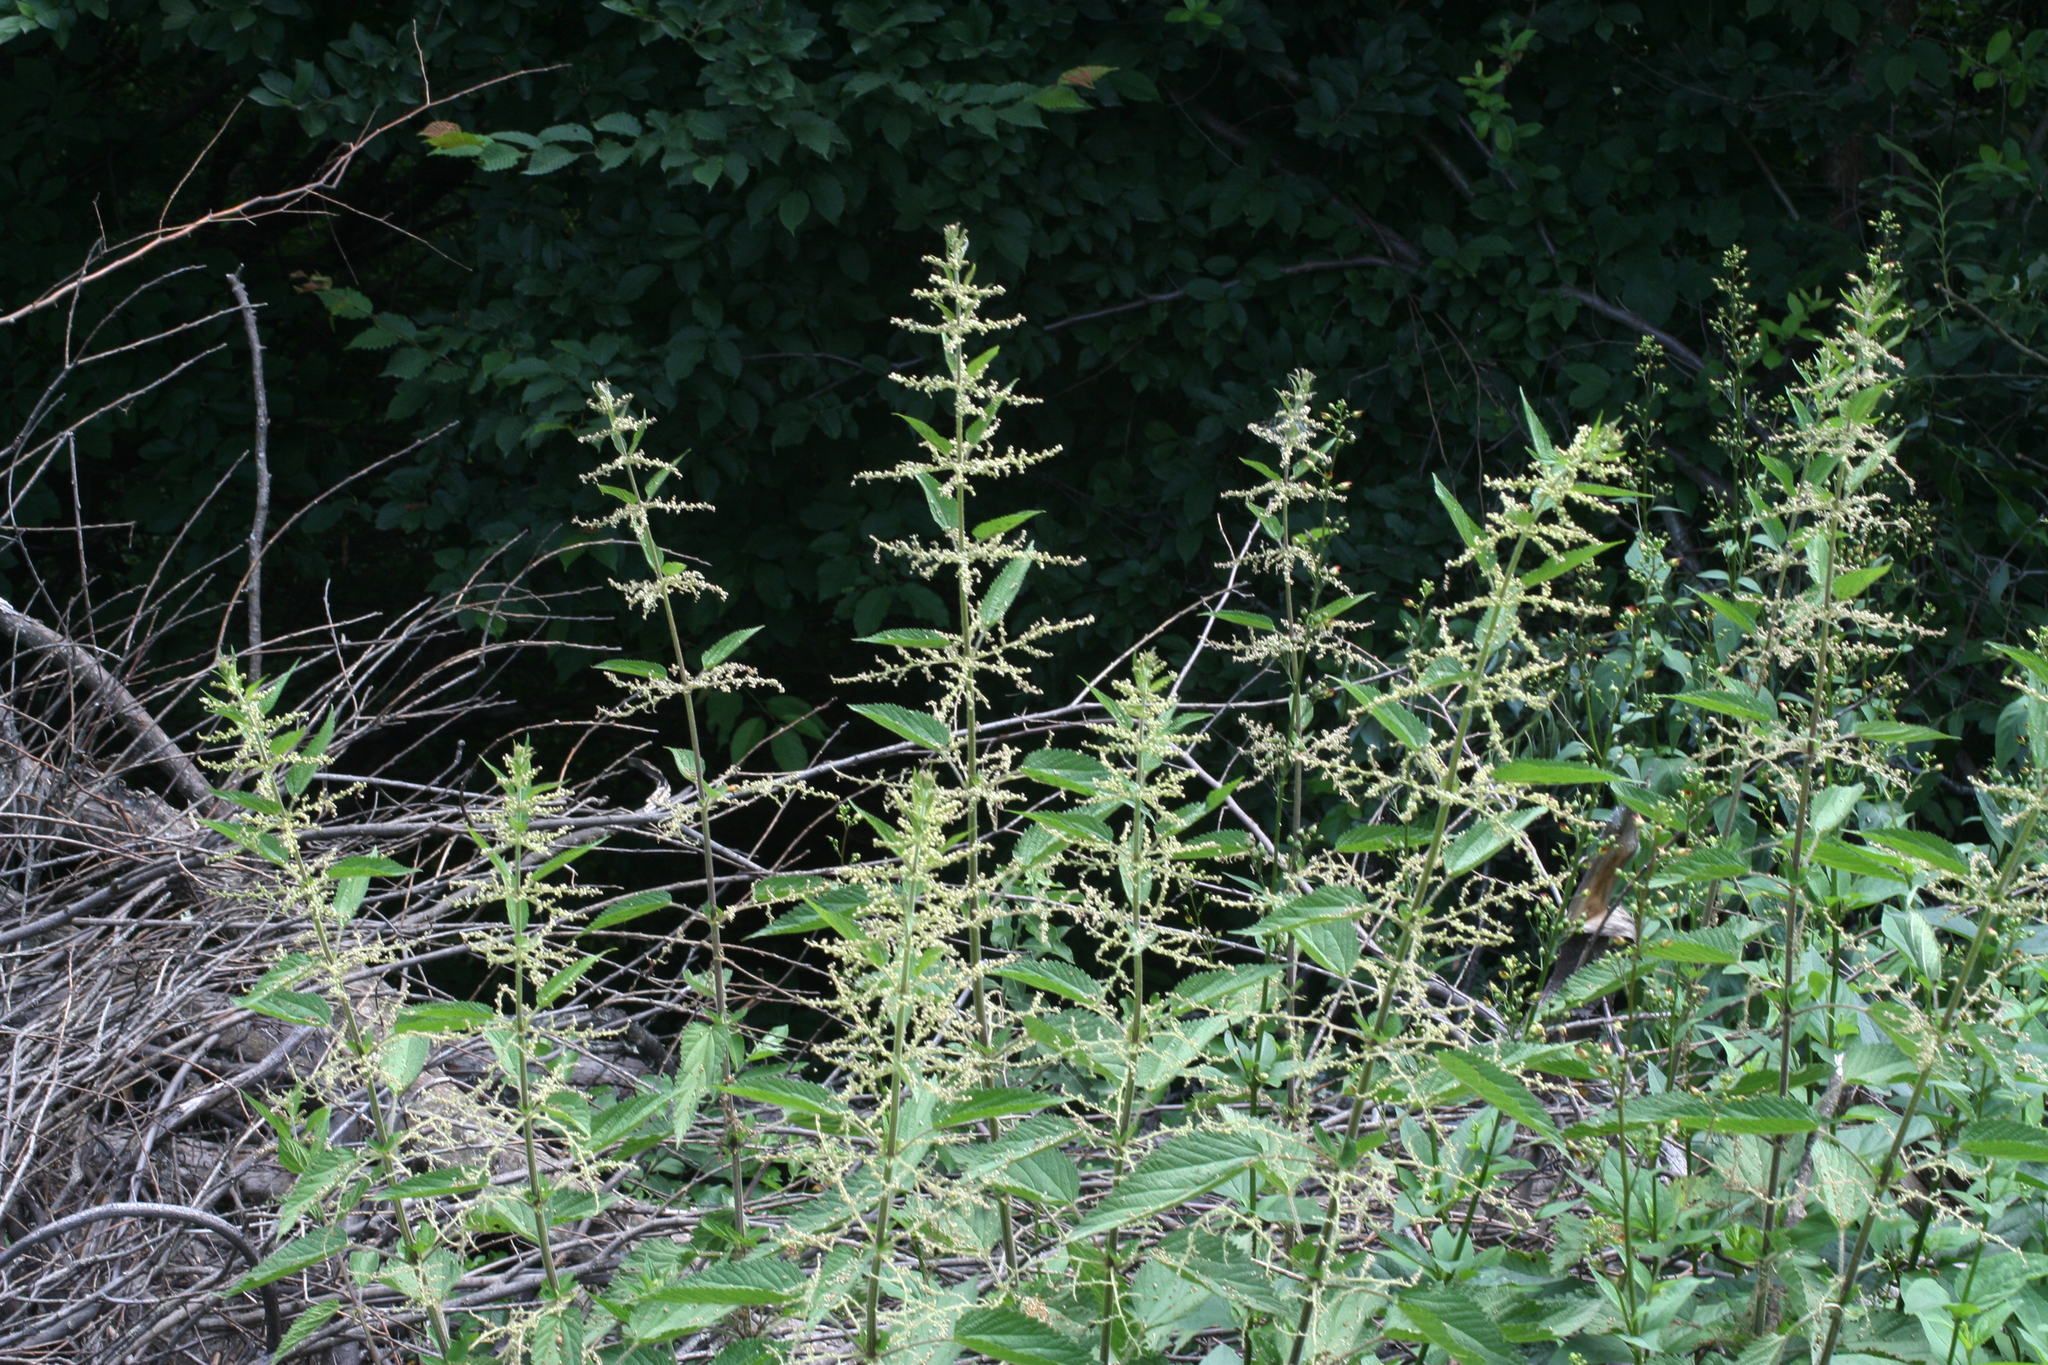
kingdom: Plantae
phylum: Tracheophyta
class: Magnoliopsida
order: Rosales
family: Urticaceae
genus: Urtica
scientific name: Urtica dioica
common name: Common nettle
